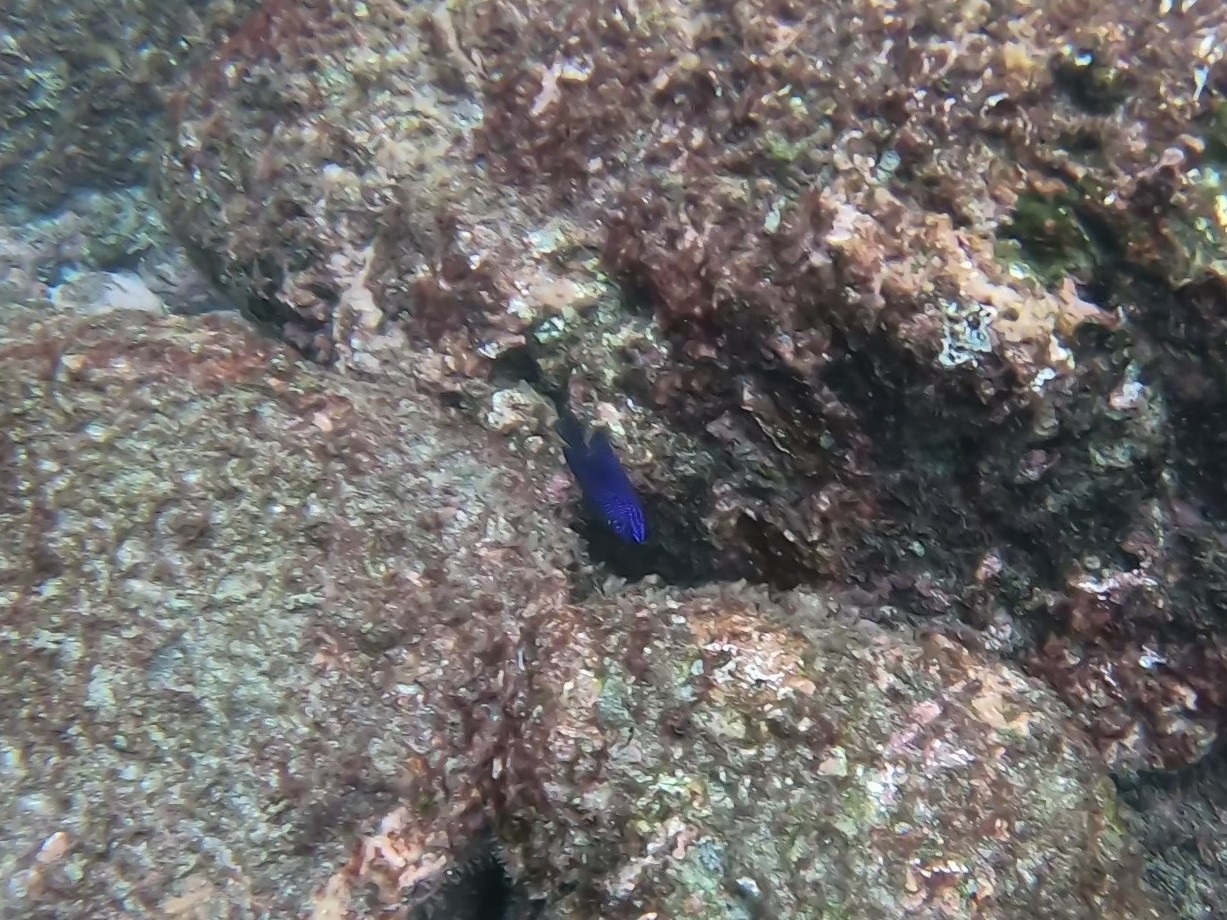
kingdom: Animalia
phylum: Chordata
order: Perciformes
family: Pomacentridae
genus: Stegastes
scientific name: Stegastes acapulcoensis
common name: Acapulco damselfish
